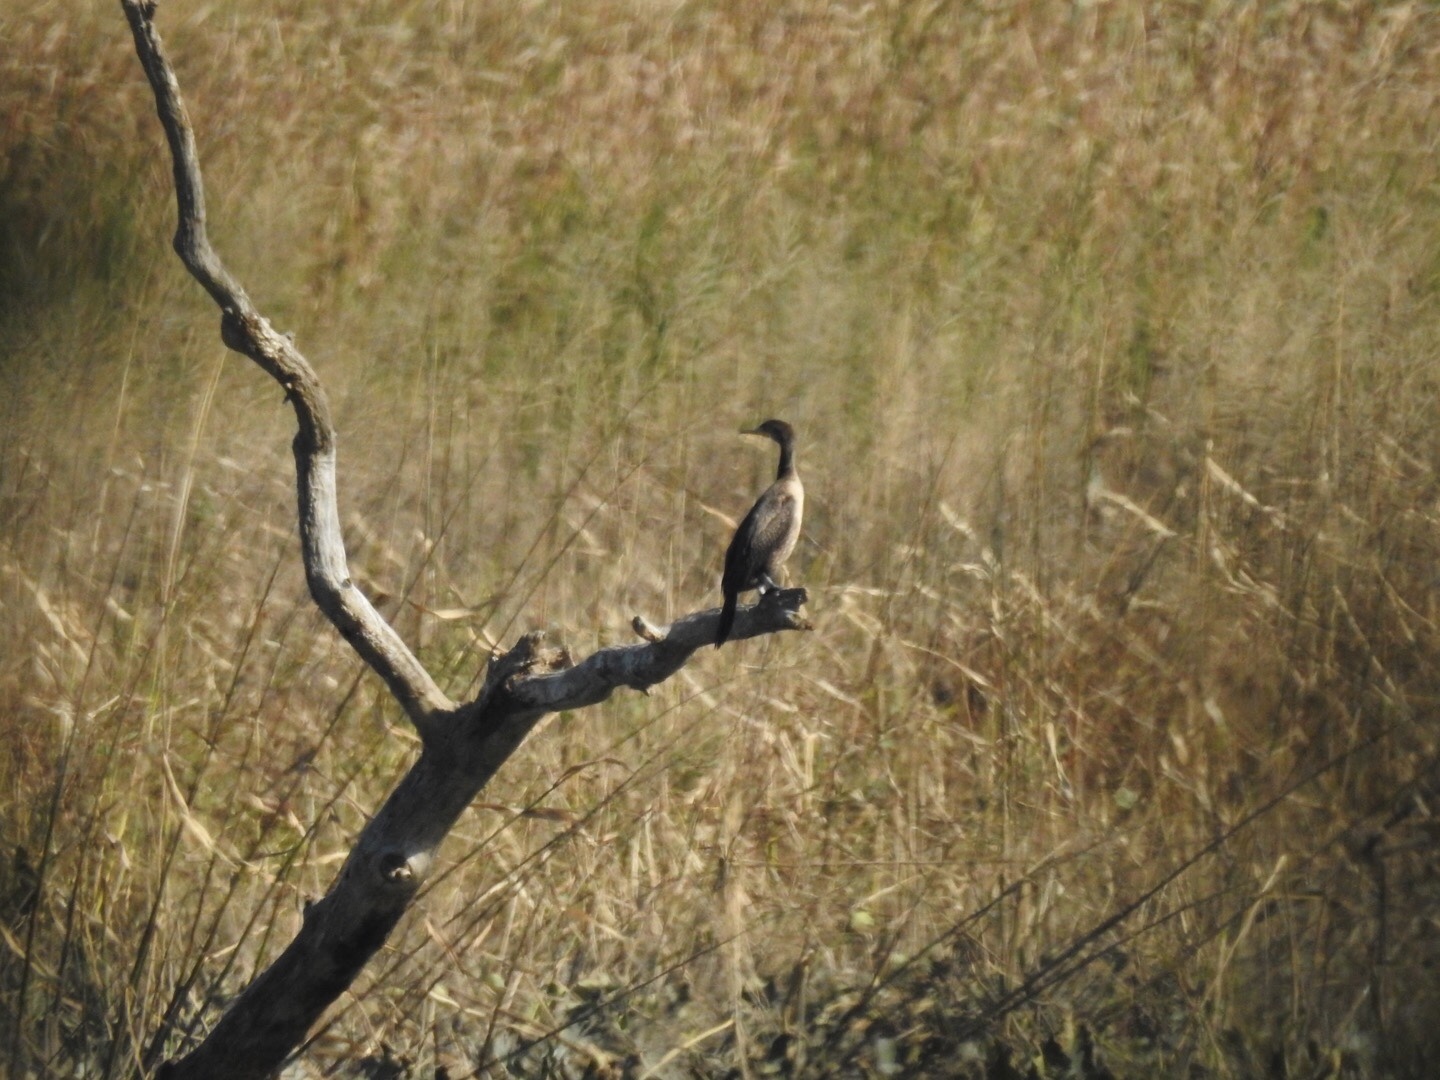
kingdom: Animalia
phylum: Chordata
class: Aves
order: Suliformes
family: Phalacrocoracidae
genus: Phalacrocorax
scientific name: Phalacrocorax auritus
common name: Double-crested cormorant
